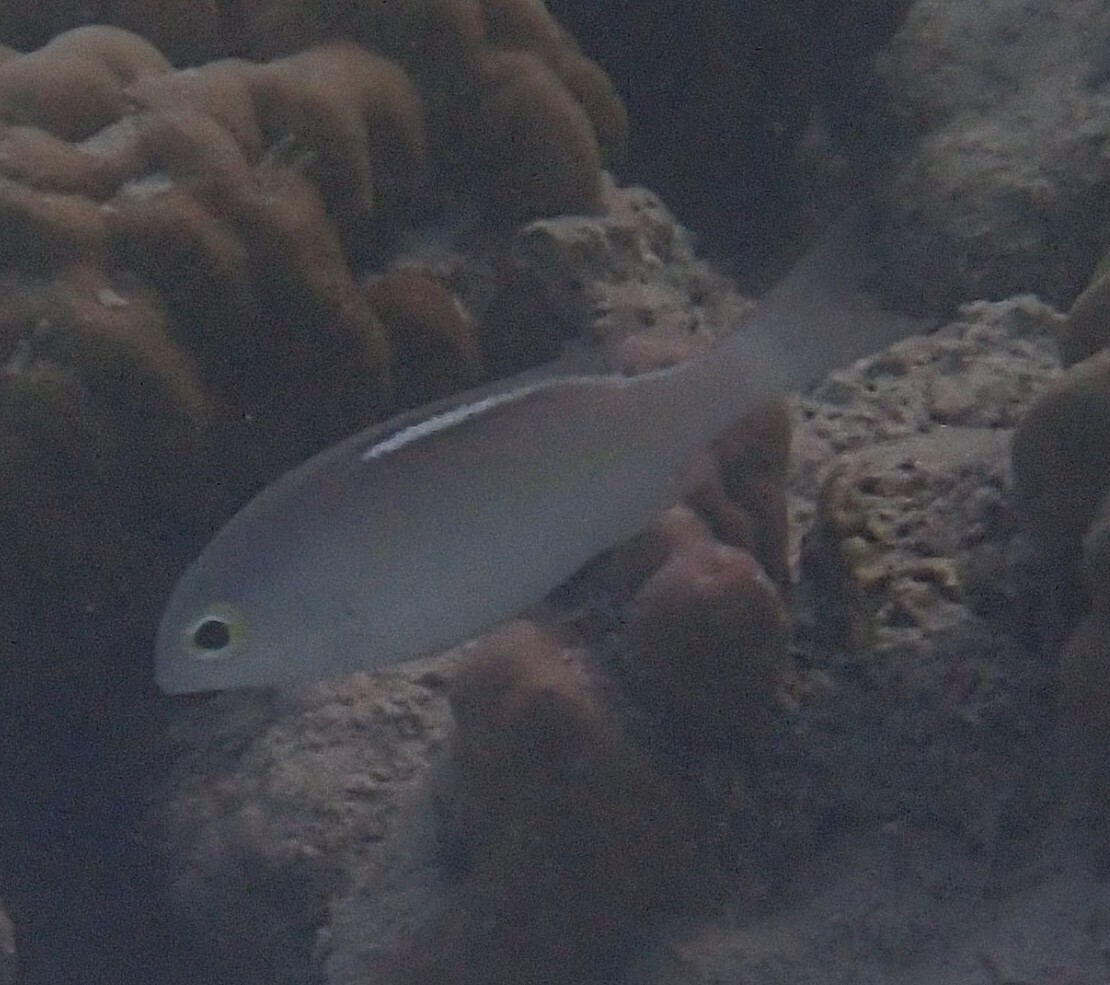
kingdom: Animalia
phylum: Chordata
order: Perciformes
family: Nemipteridae
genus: Scolopsis
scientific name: Scolopsis ciliata
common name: Ciliate spinecheek
